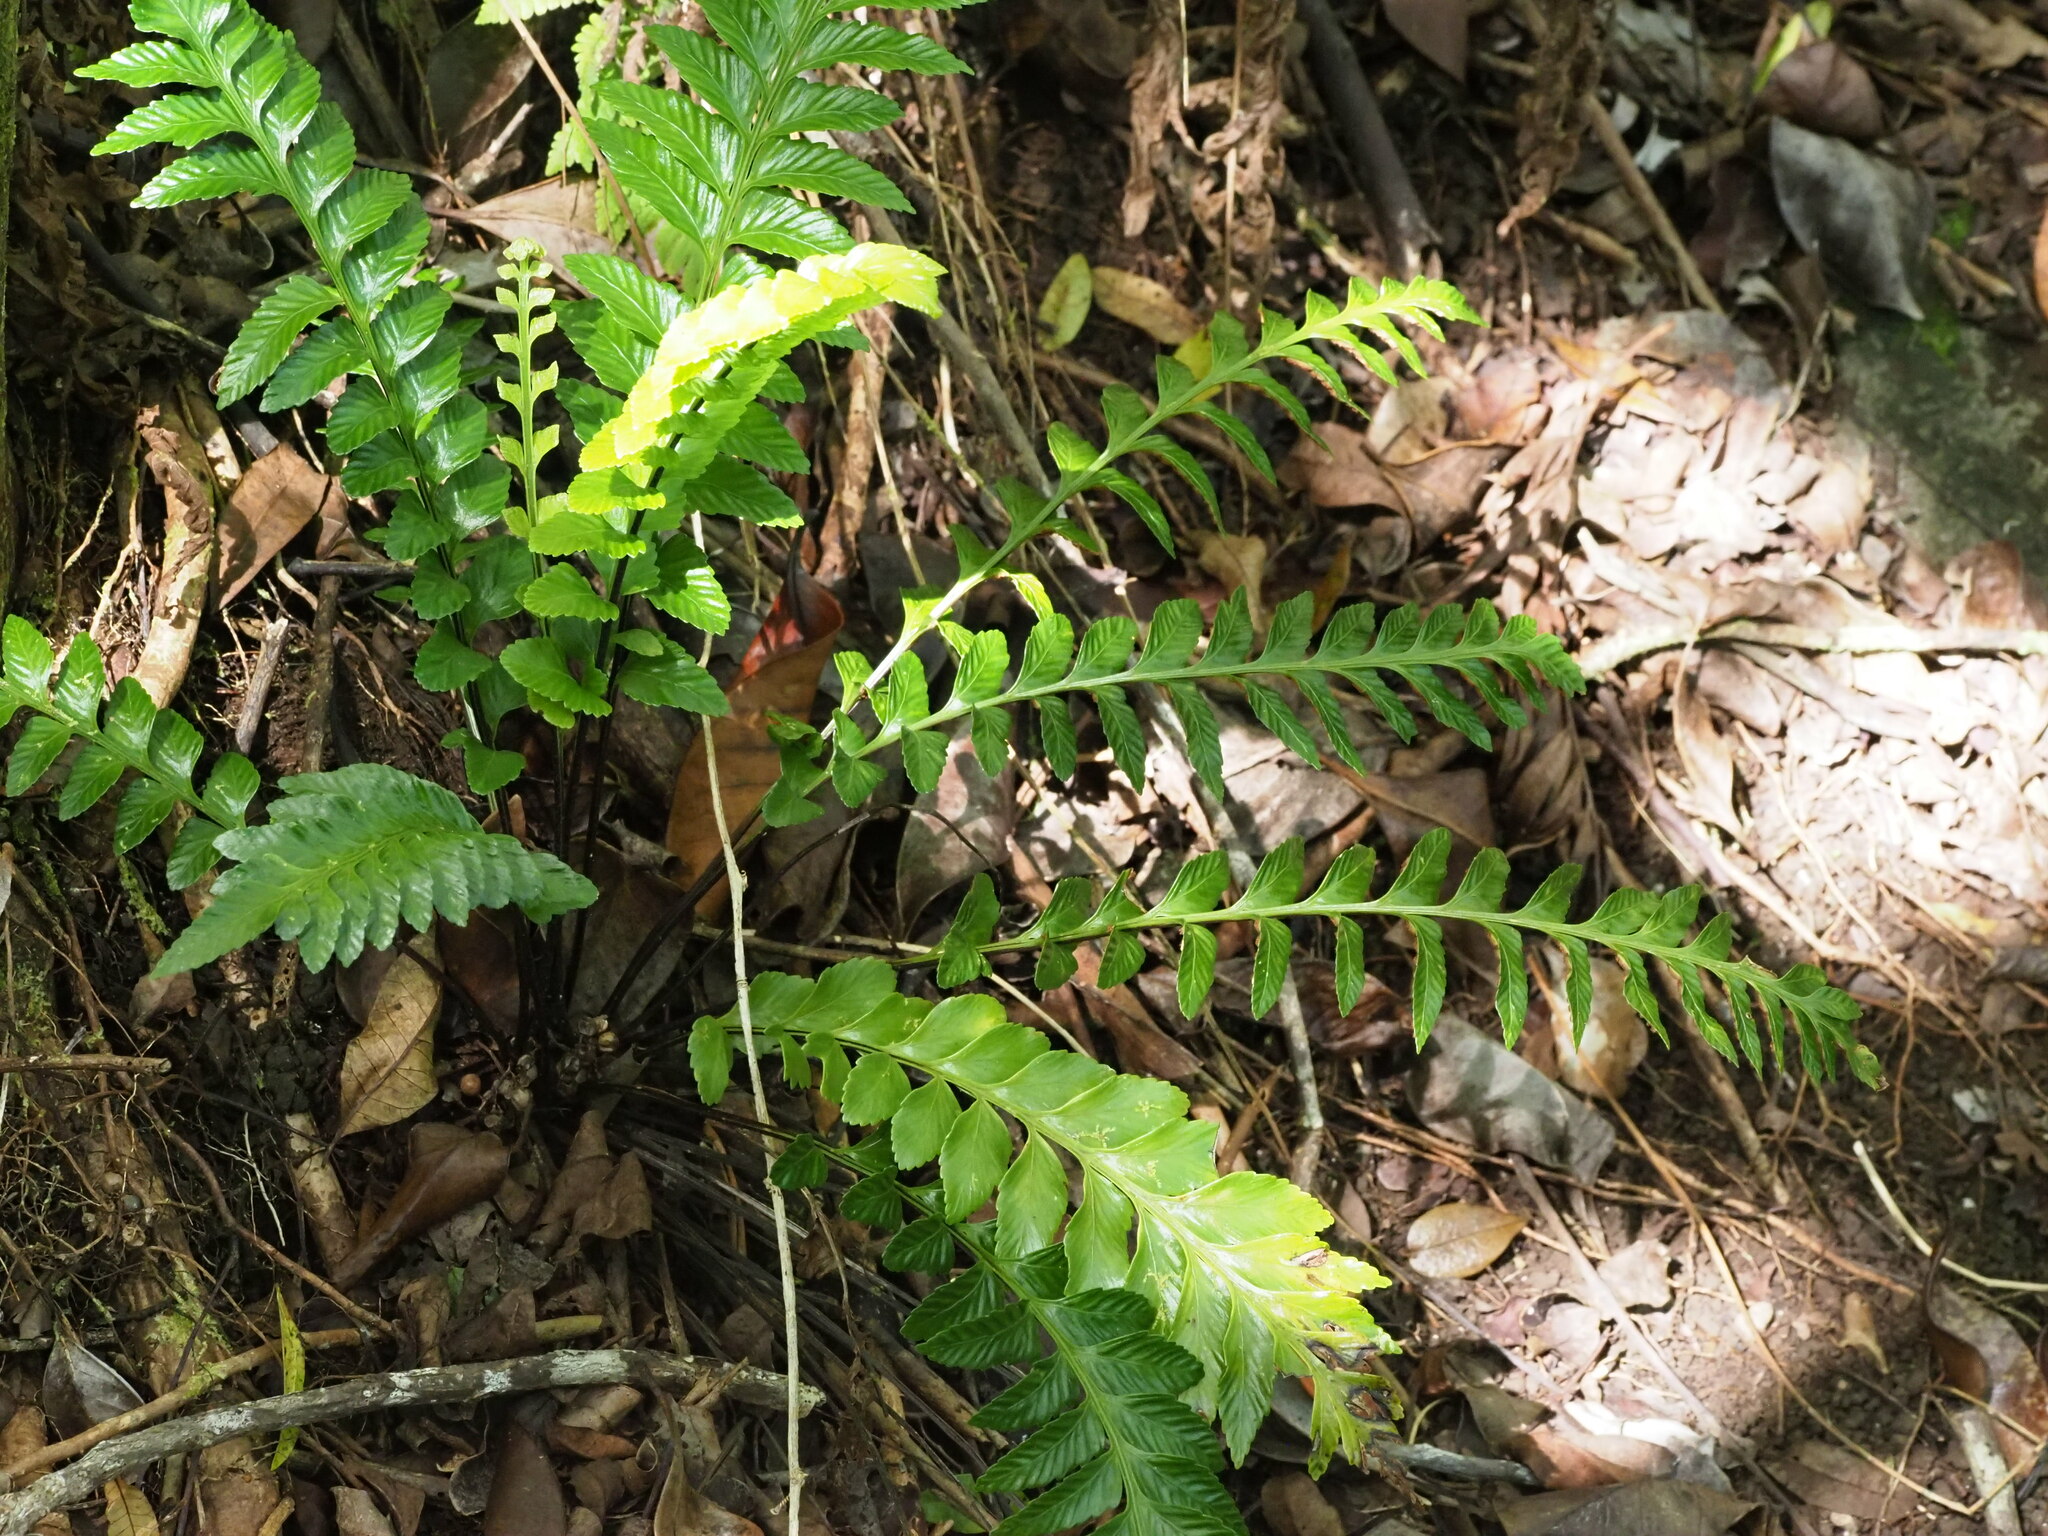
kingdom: Plantae
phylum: Tracheophyta
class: Polypodiopsida
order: Polypodiales
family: Aspleniaceae
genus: Asplenium
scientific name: Asplenium kaulfussii
